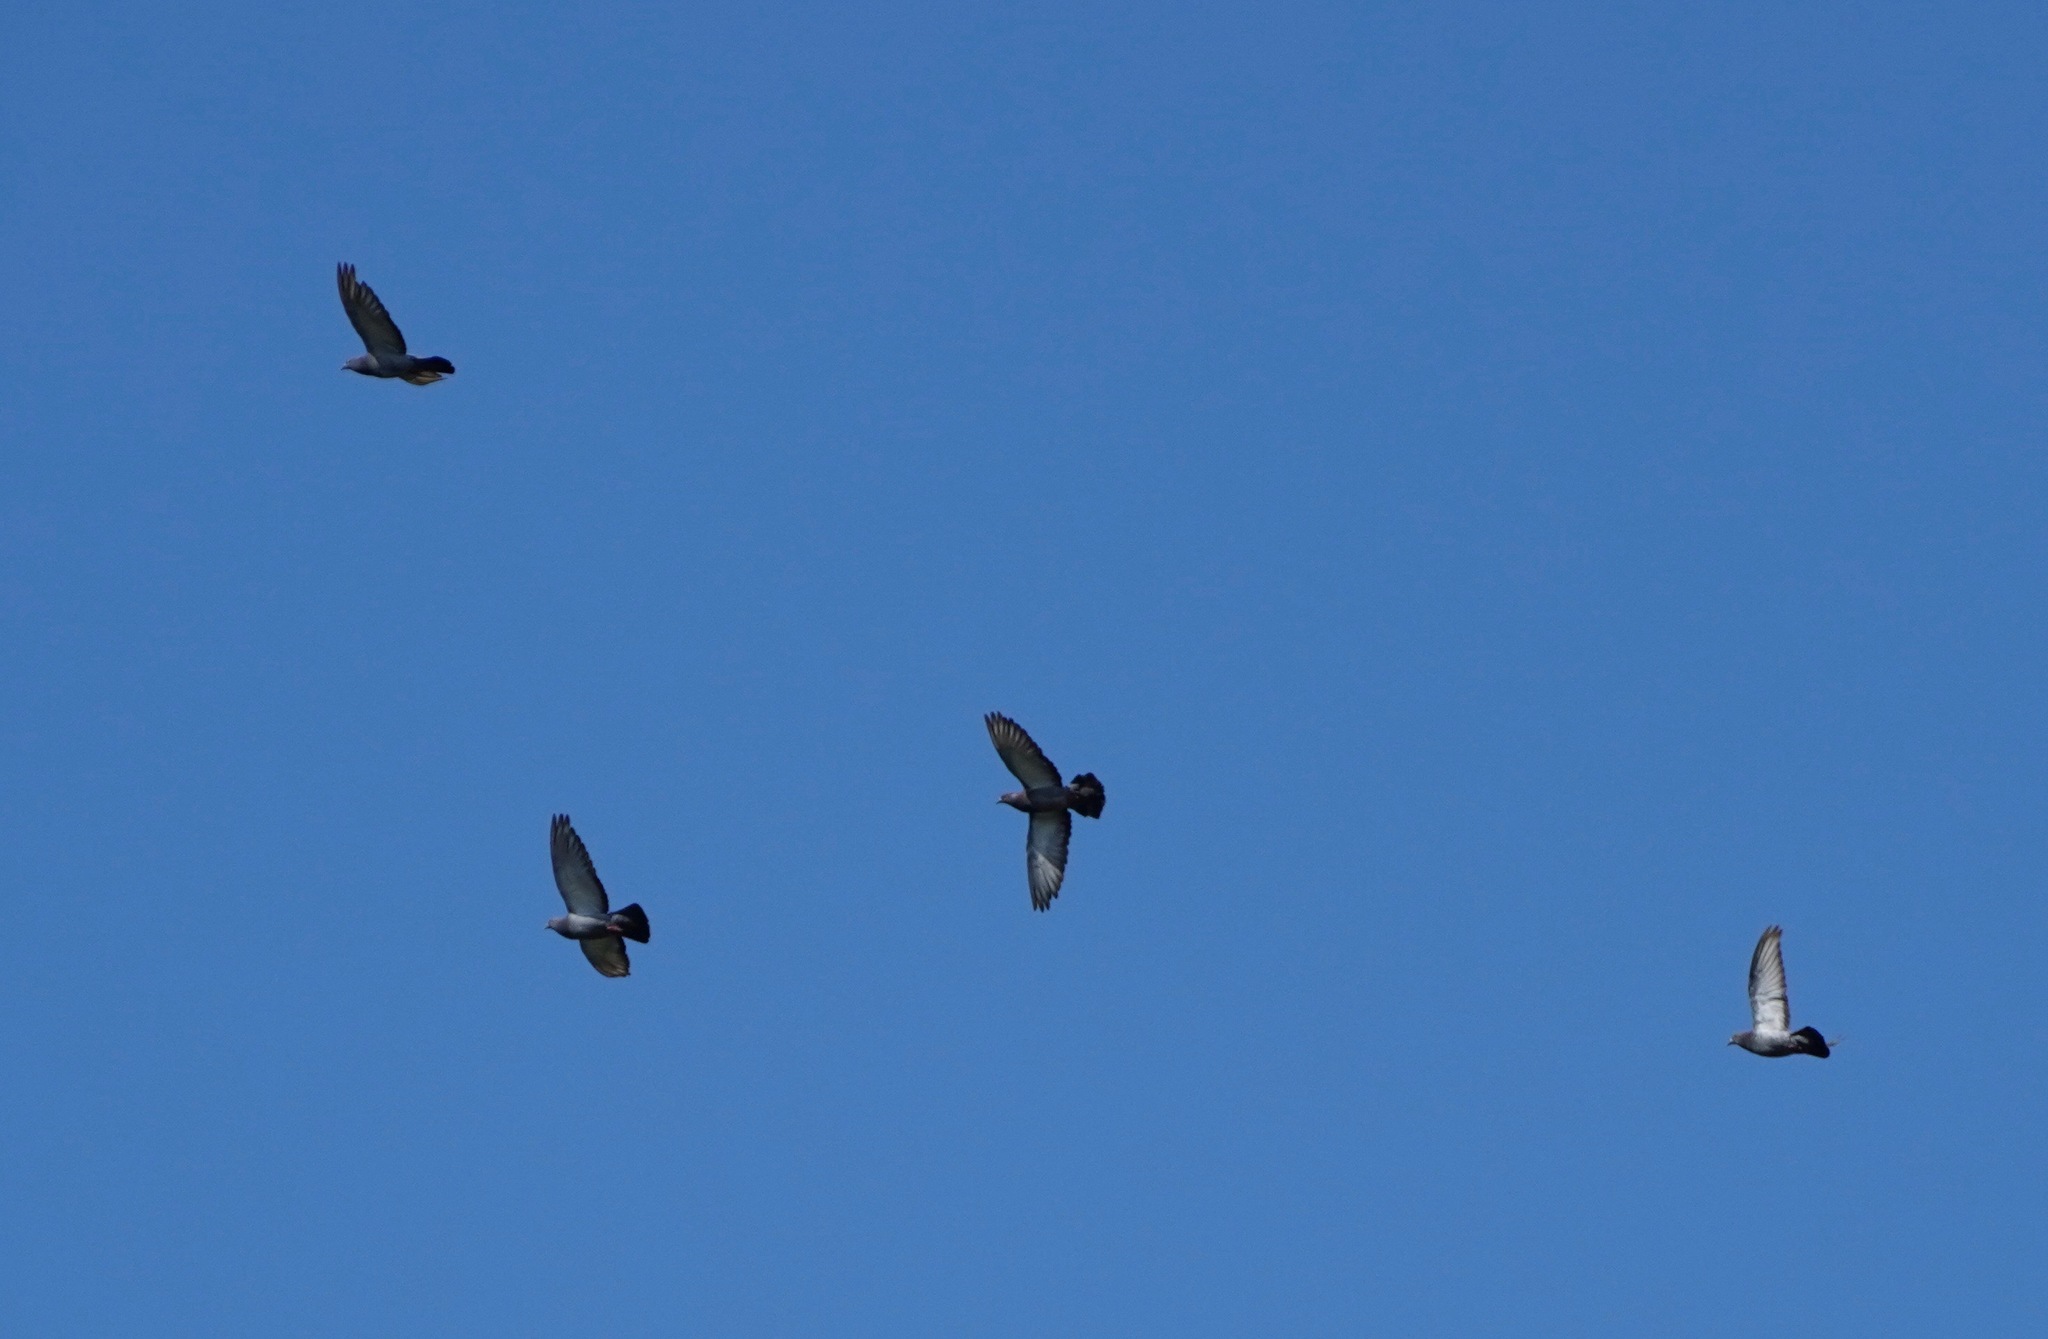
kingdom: Animalia
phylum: Chordata
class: Aves
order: Columbiformes
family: Columbidae
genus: Columba
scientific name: Columba livia
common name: Rock pigeon
